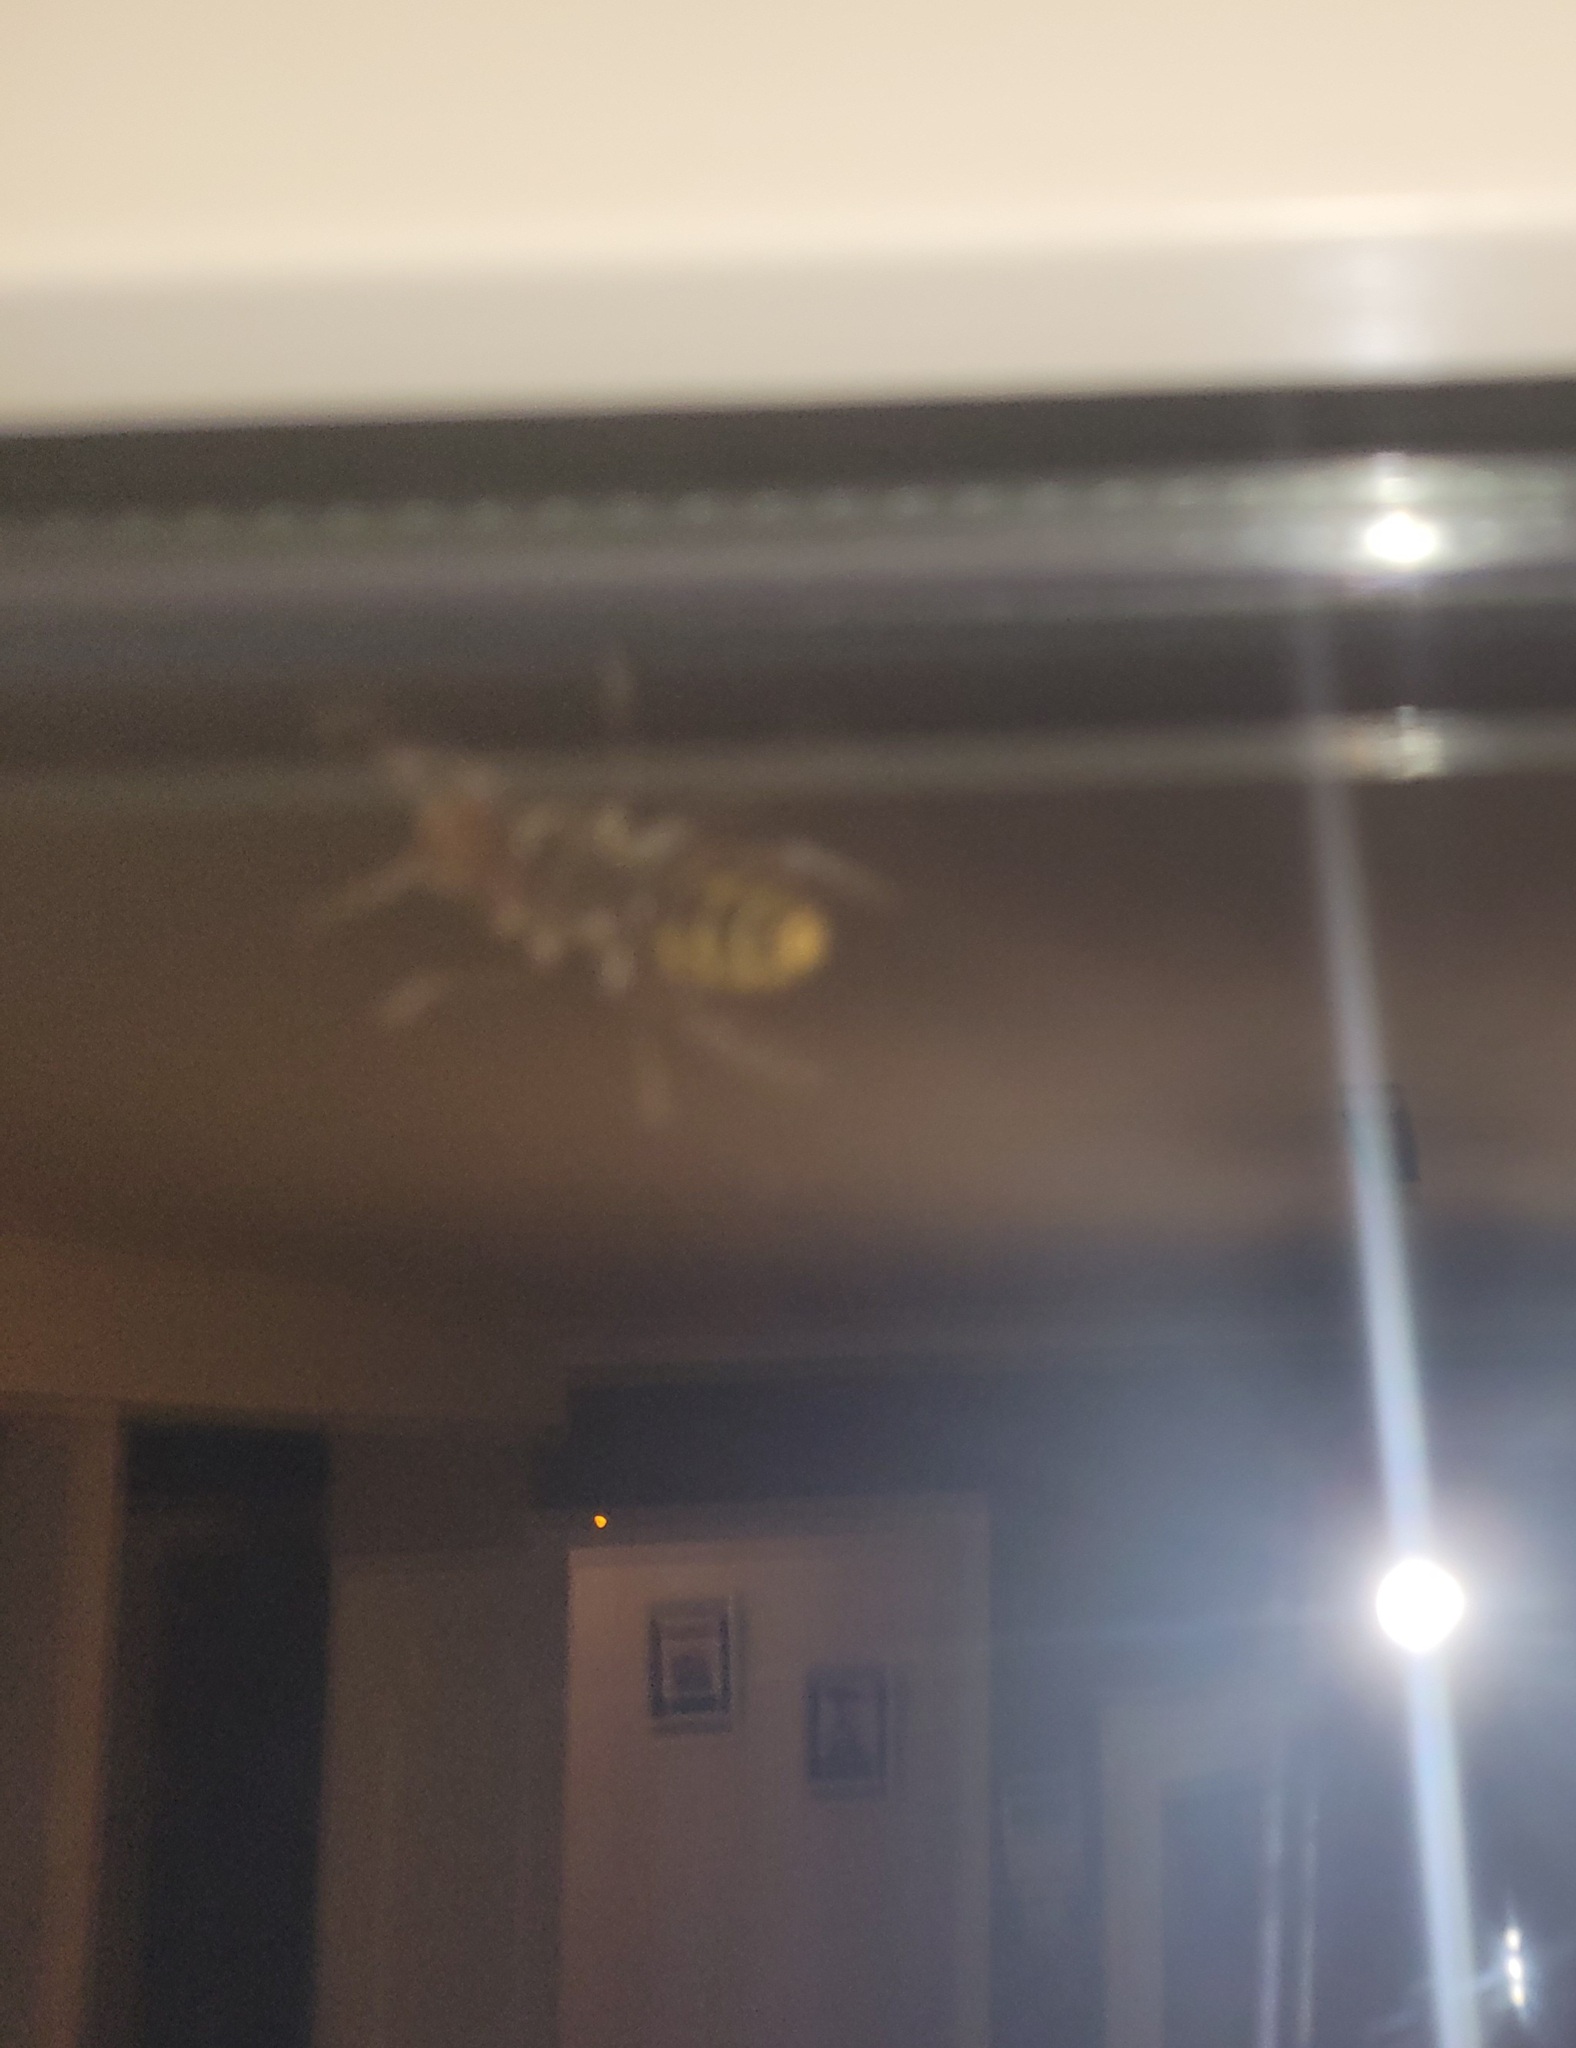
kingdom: Animalia
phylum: Arthropoda
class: Insecta
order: Hymenoptera
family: Vespidae
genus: Vespa
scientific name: Vespa crabro
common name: Hornet
